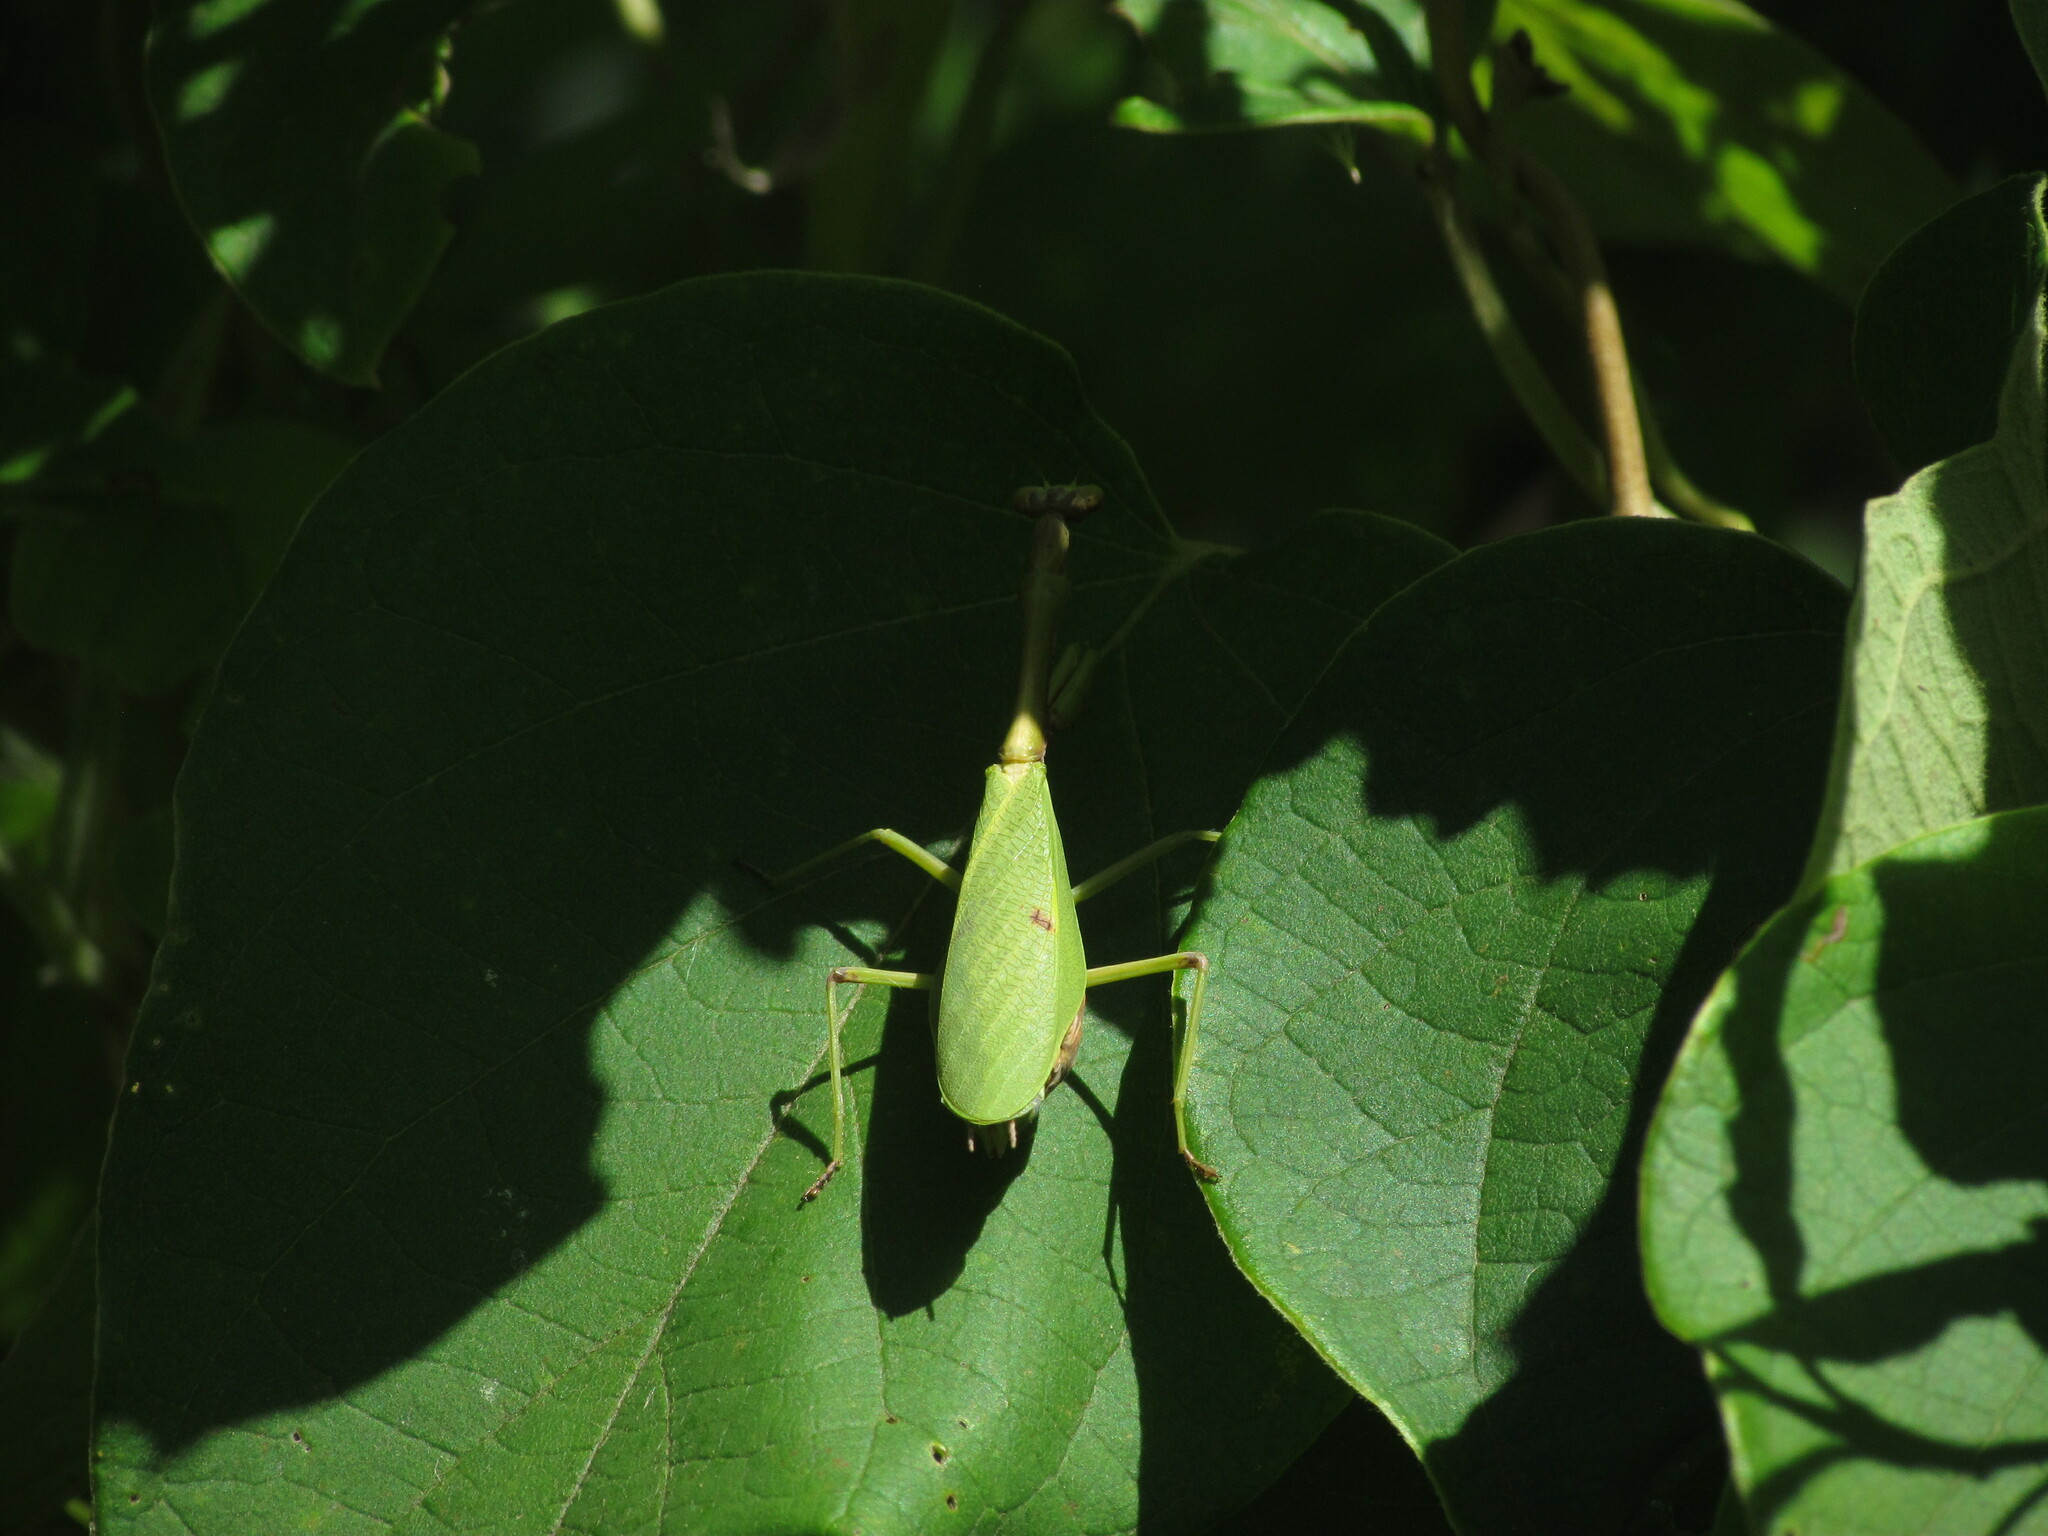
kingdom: Animalia
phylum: Arthropoda
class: Insecta
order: Mantodea
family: Mantidae
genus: Parastagmatoptera
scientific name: Parastagmatoptera unipunctata
